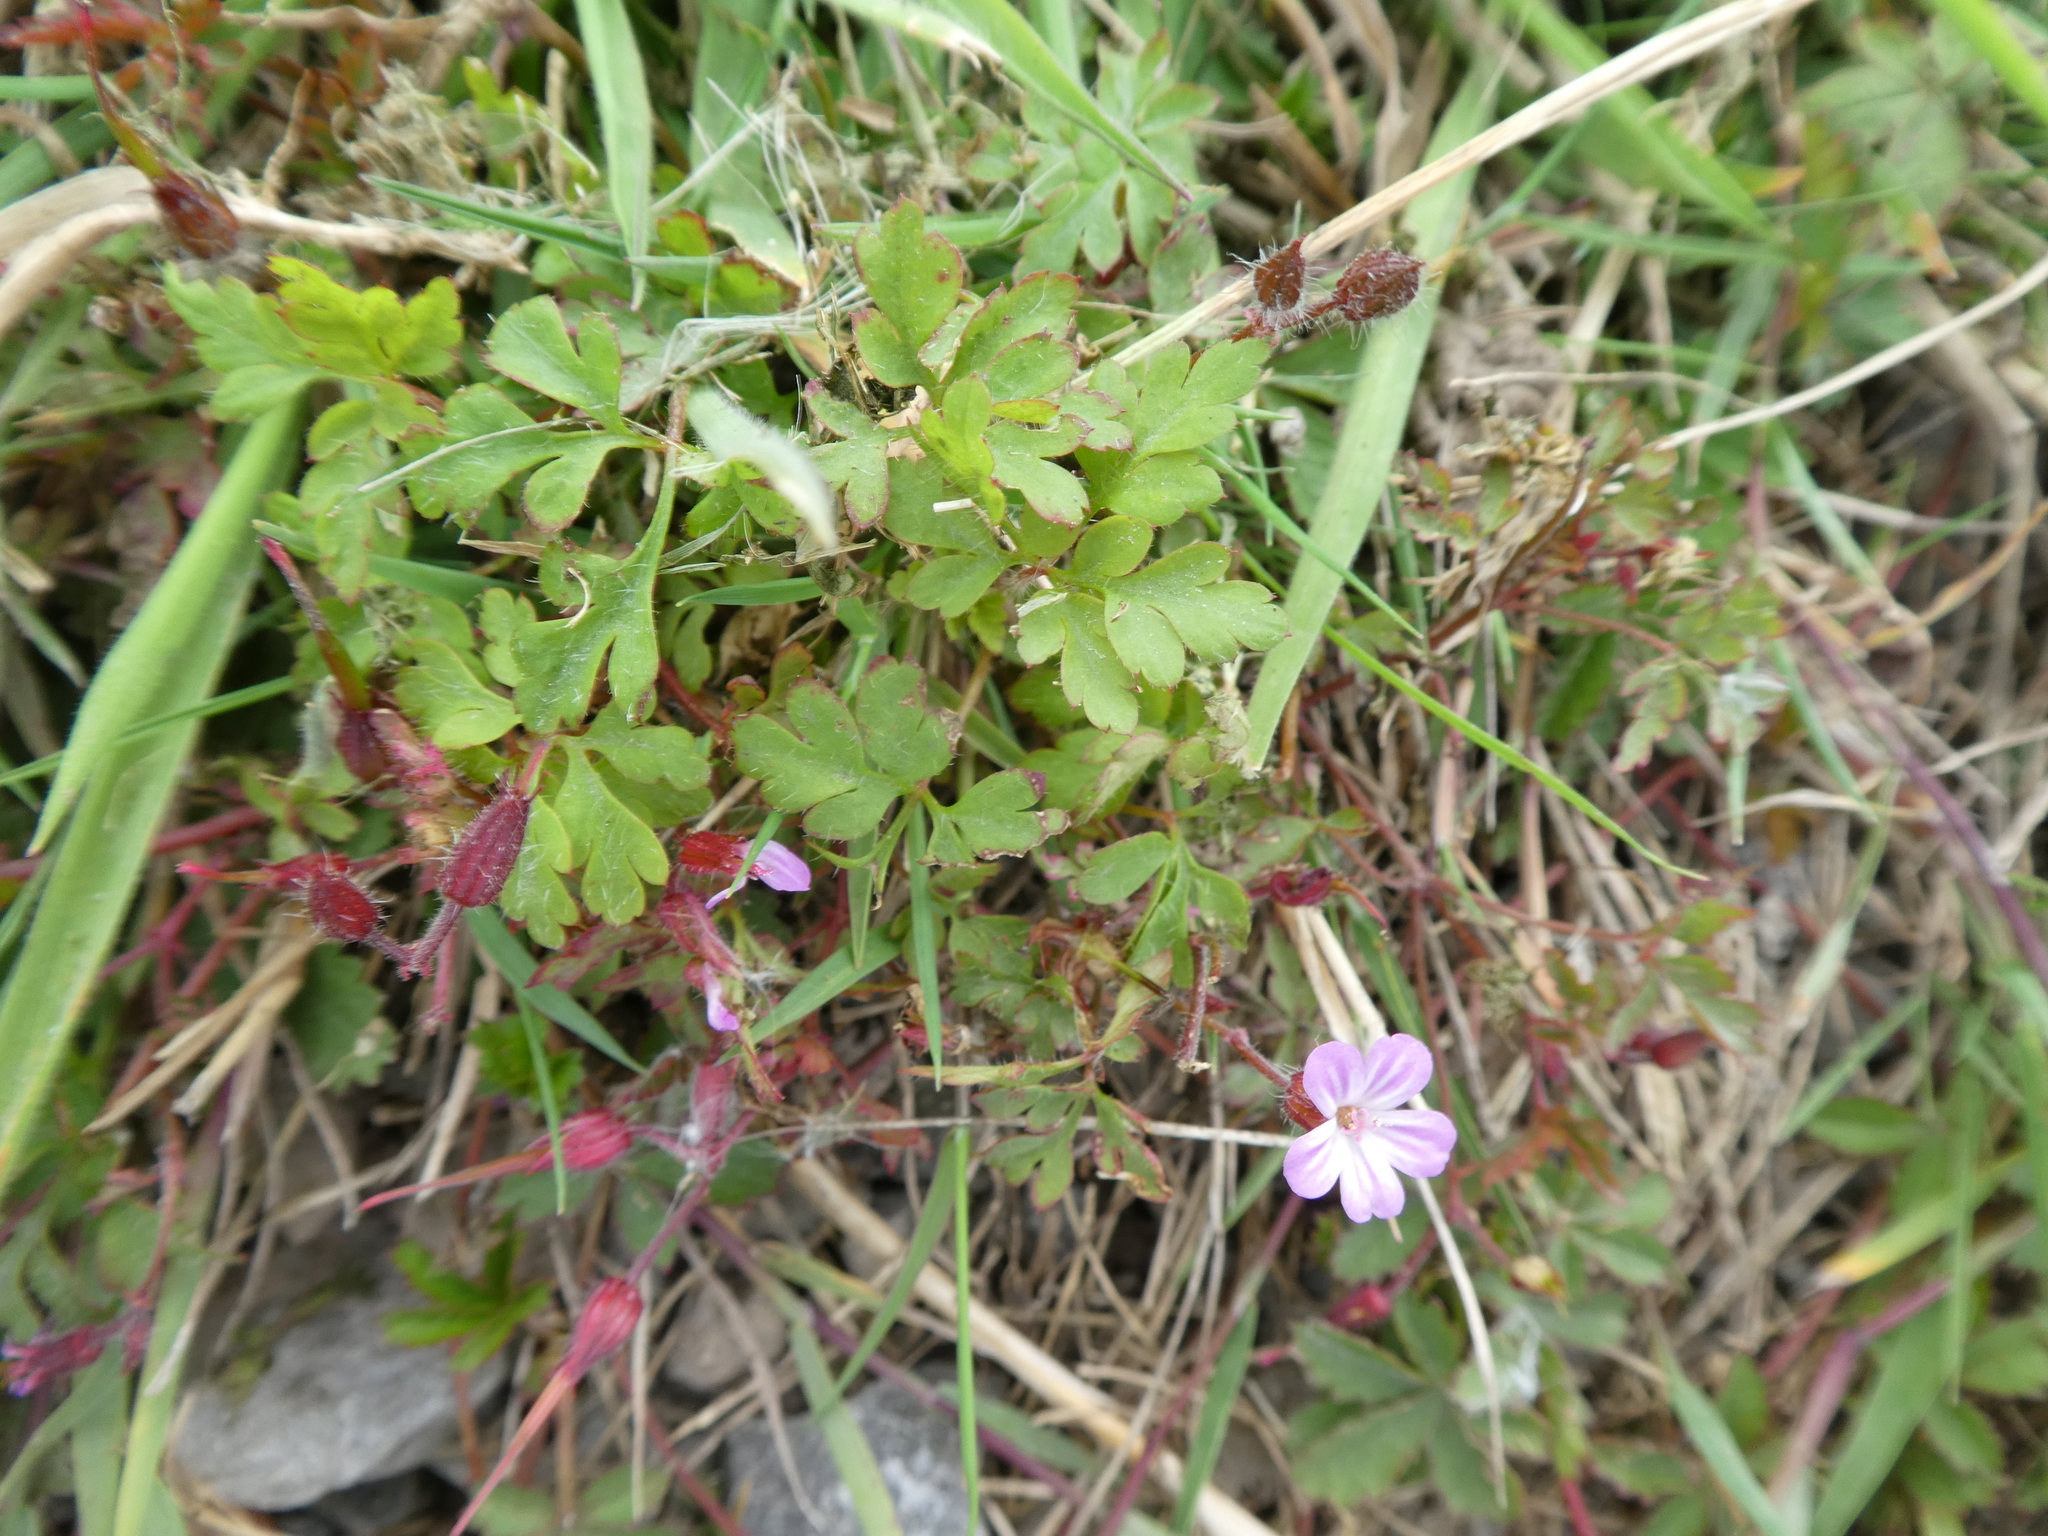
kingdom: Plantae
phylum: Tracheophyta
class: Magnoliopsida
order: Geraniales
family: Geraniaceae
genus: Geranium
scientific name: Geranium robertianum
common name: Herb-robert
